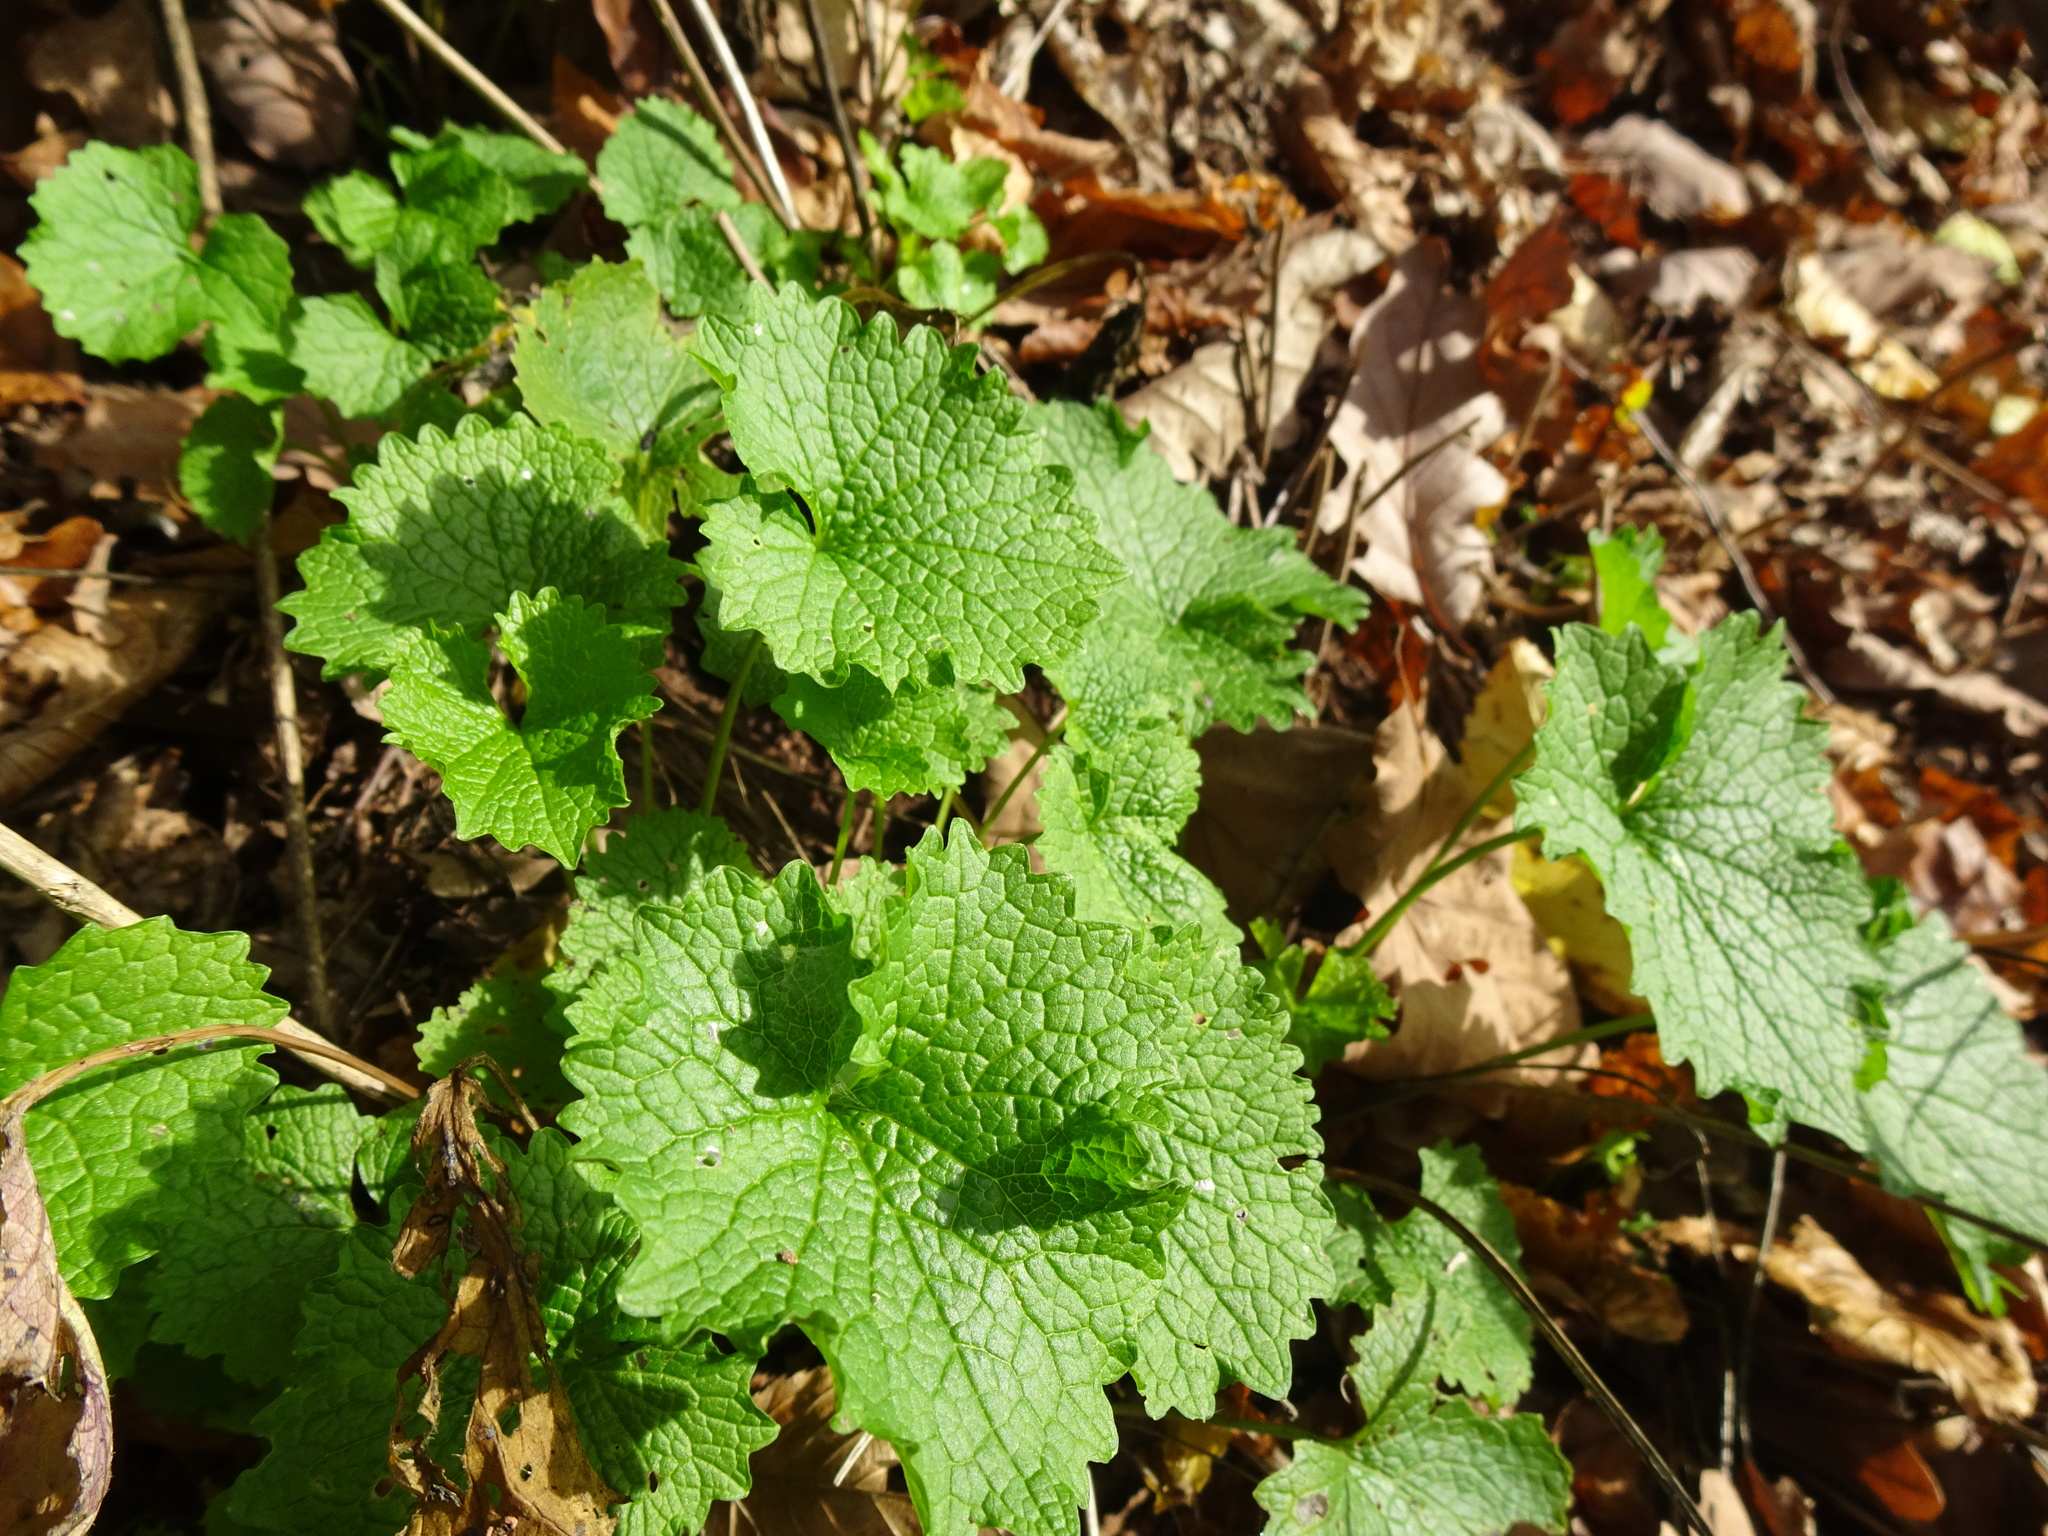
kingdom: Plantae
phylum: Tracheophyta
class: Magnoliopsida
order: Brassicales
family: Brassicaceae
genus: Alliaria
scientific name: Alliaria petiolata
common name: Garlic mustard
